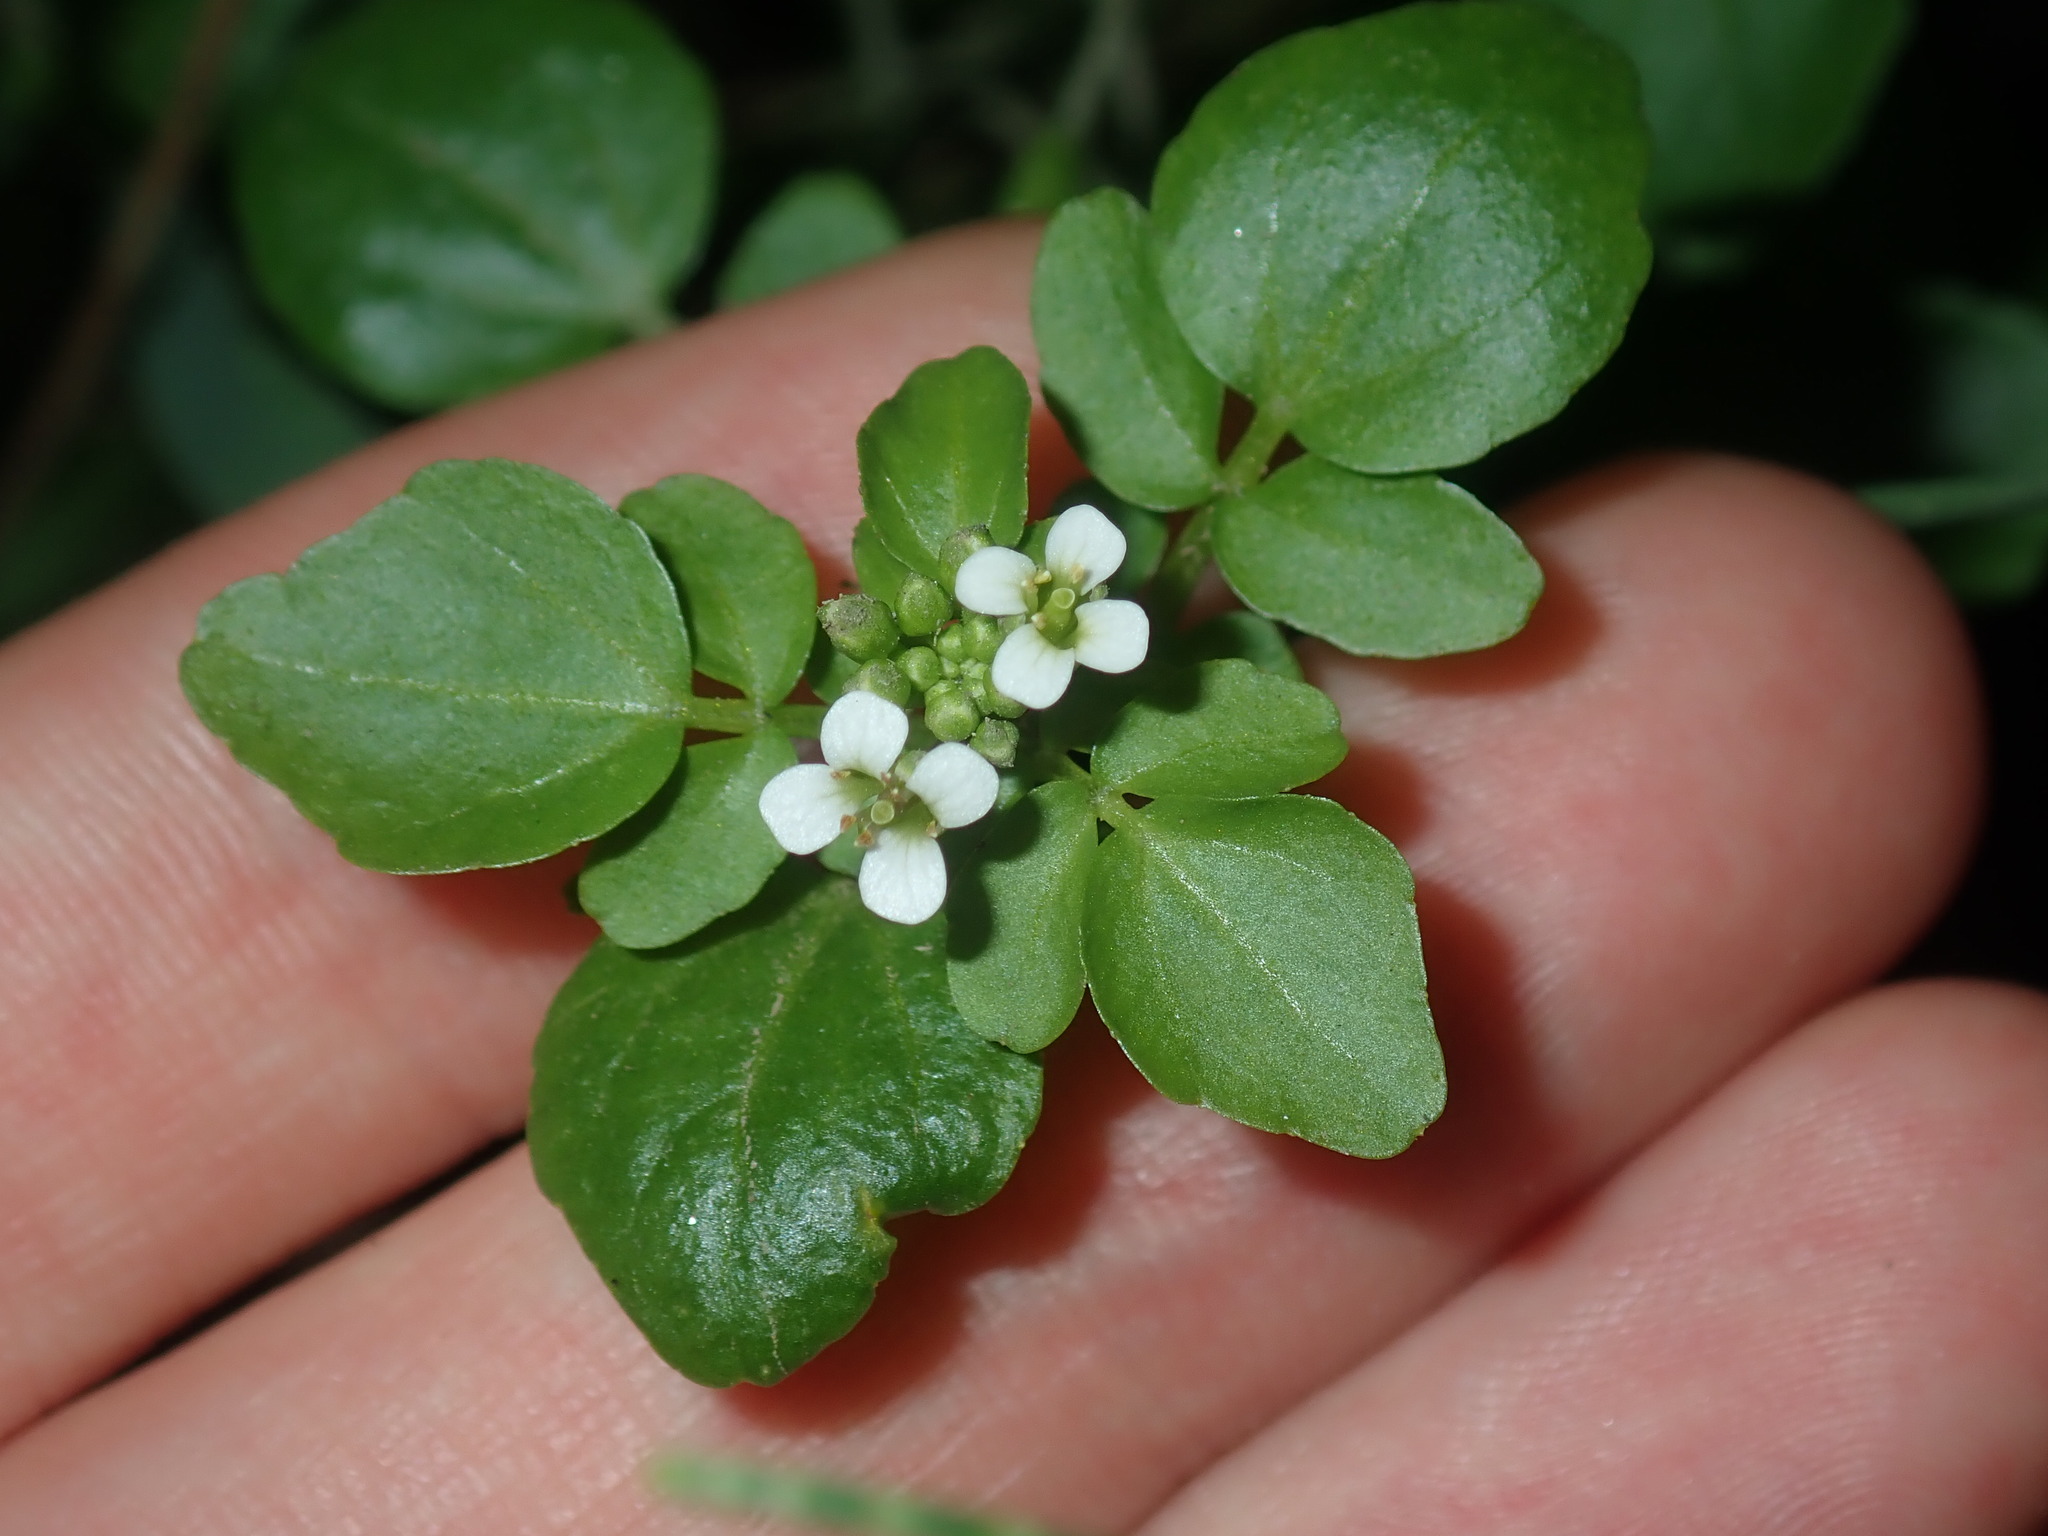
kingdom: Plantae
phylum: Tracheophyta
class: Magnoliopsida
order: Brassicales
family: Brassicaceae
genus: Nasturtium
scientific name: Nasturtium officinale
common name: Watercress
